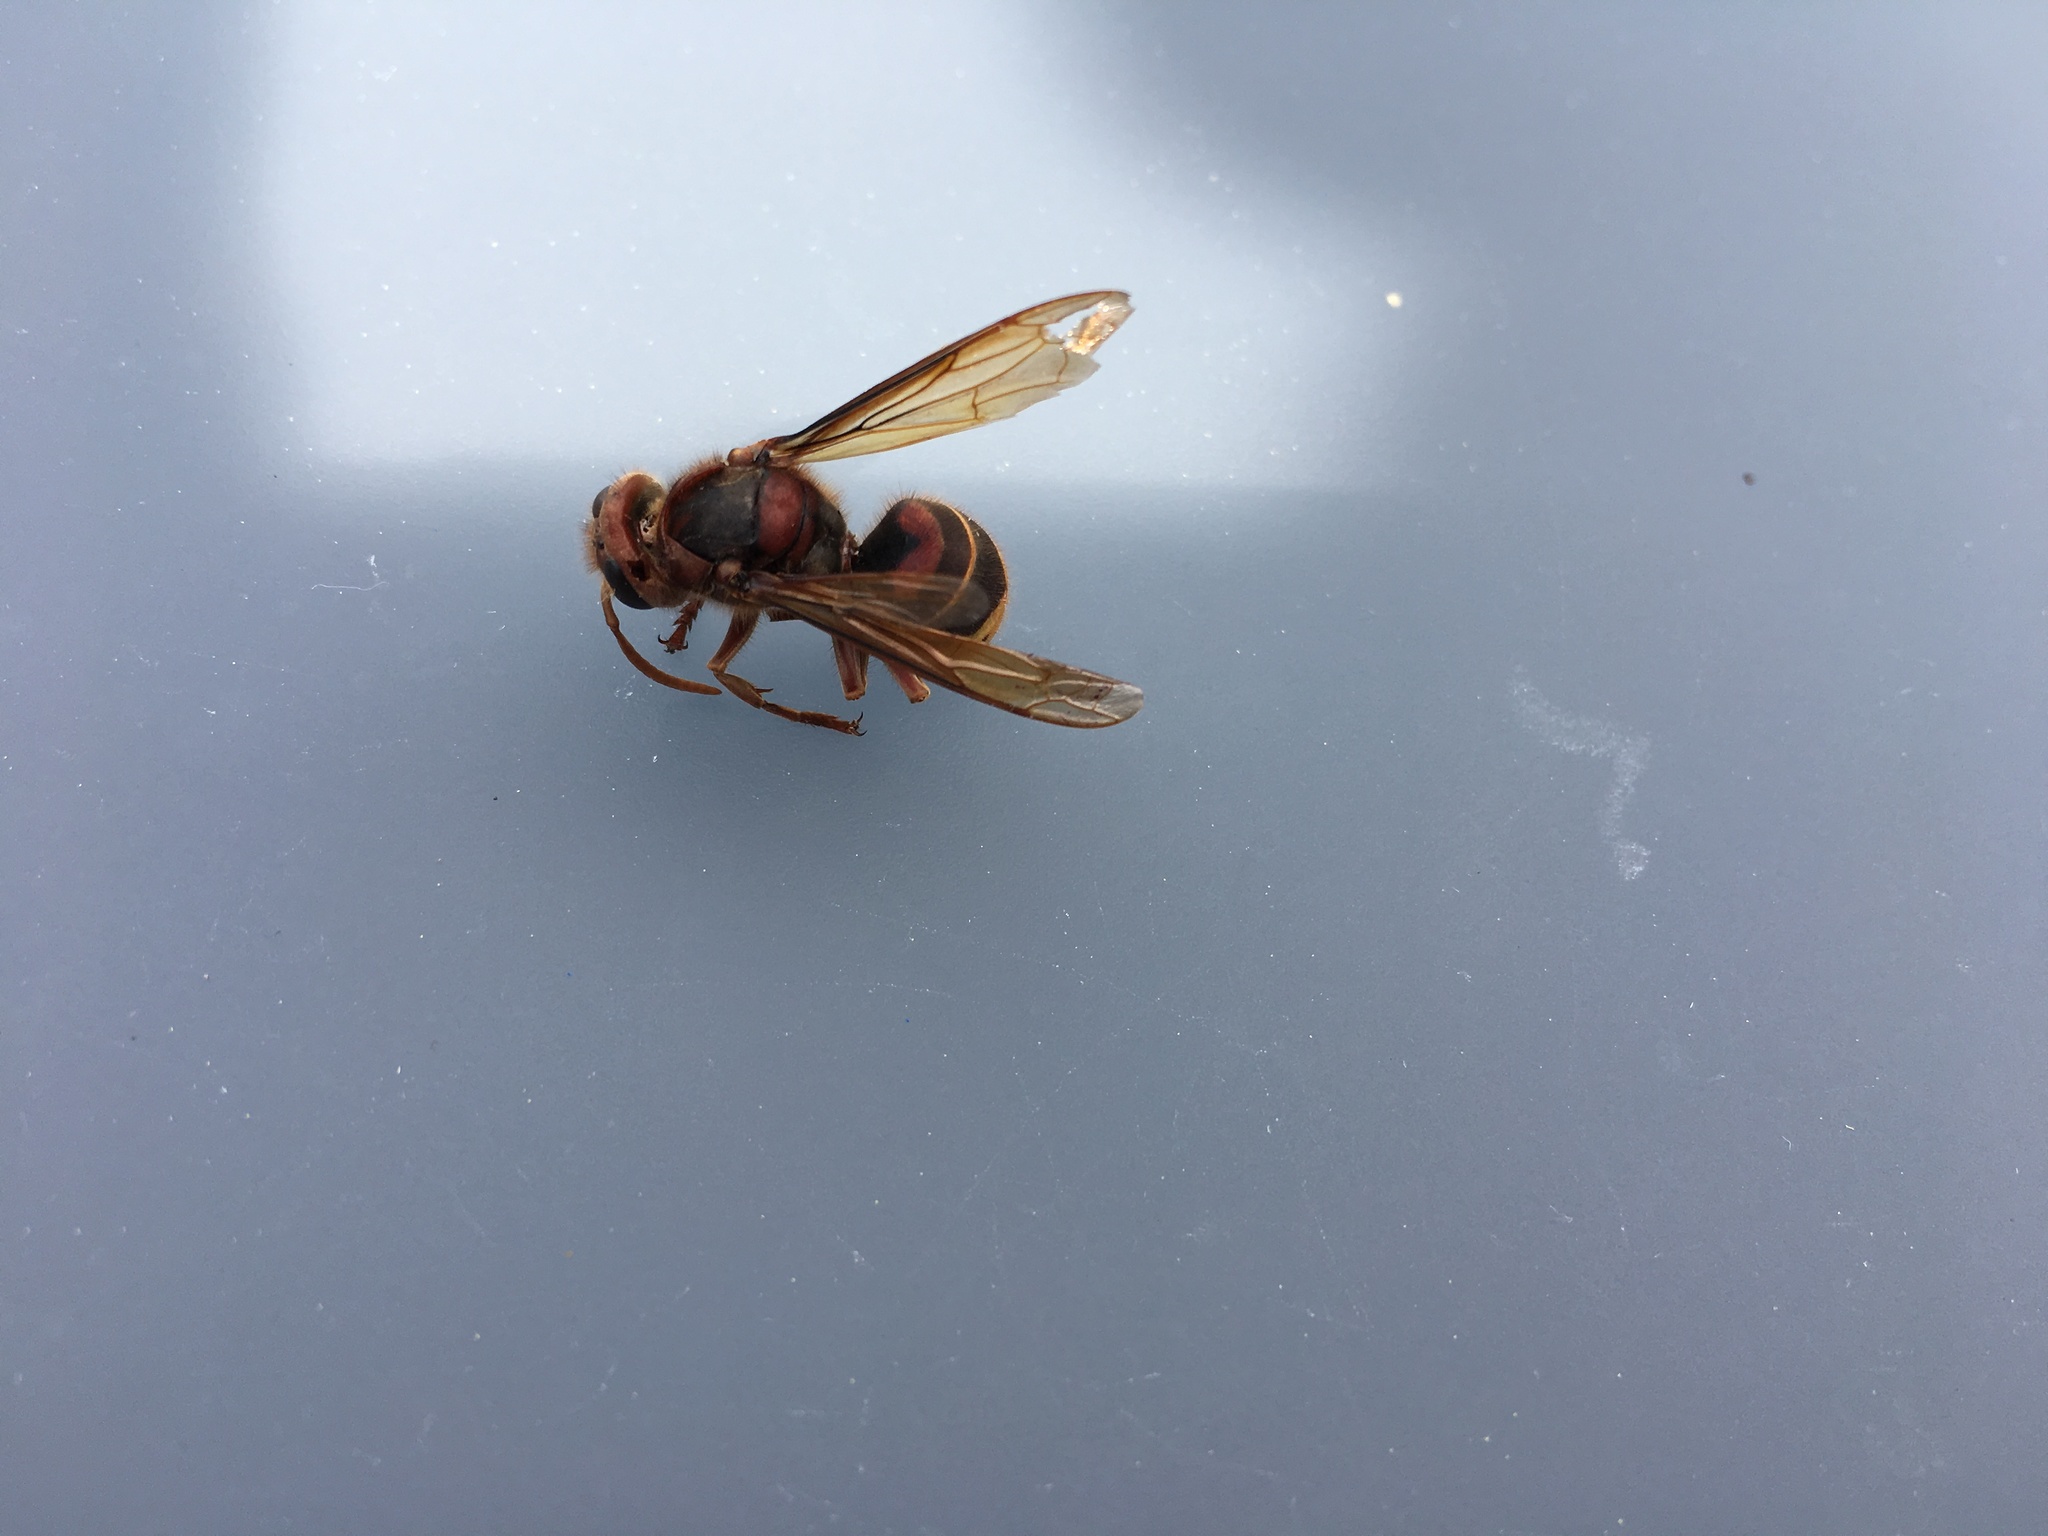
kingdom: Animalia
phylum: Arthropoda
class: Insecta
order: Hymenoptera
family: Vespidae
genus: Vespa
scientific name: Vespa crabro
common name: Hornet
